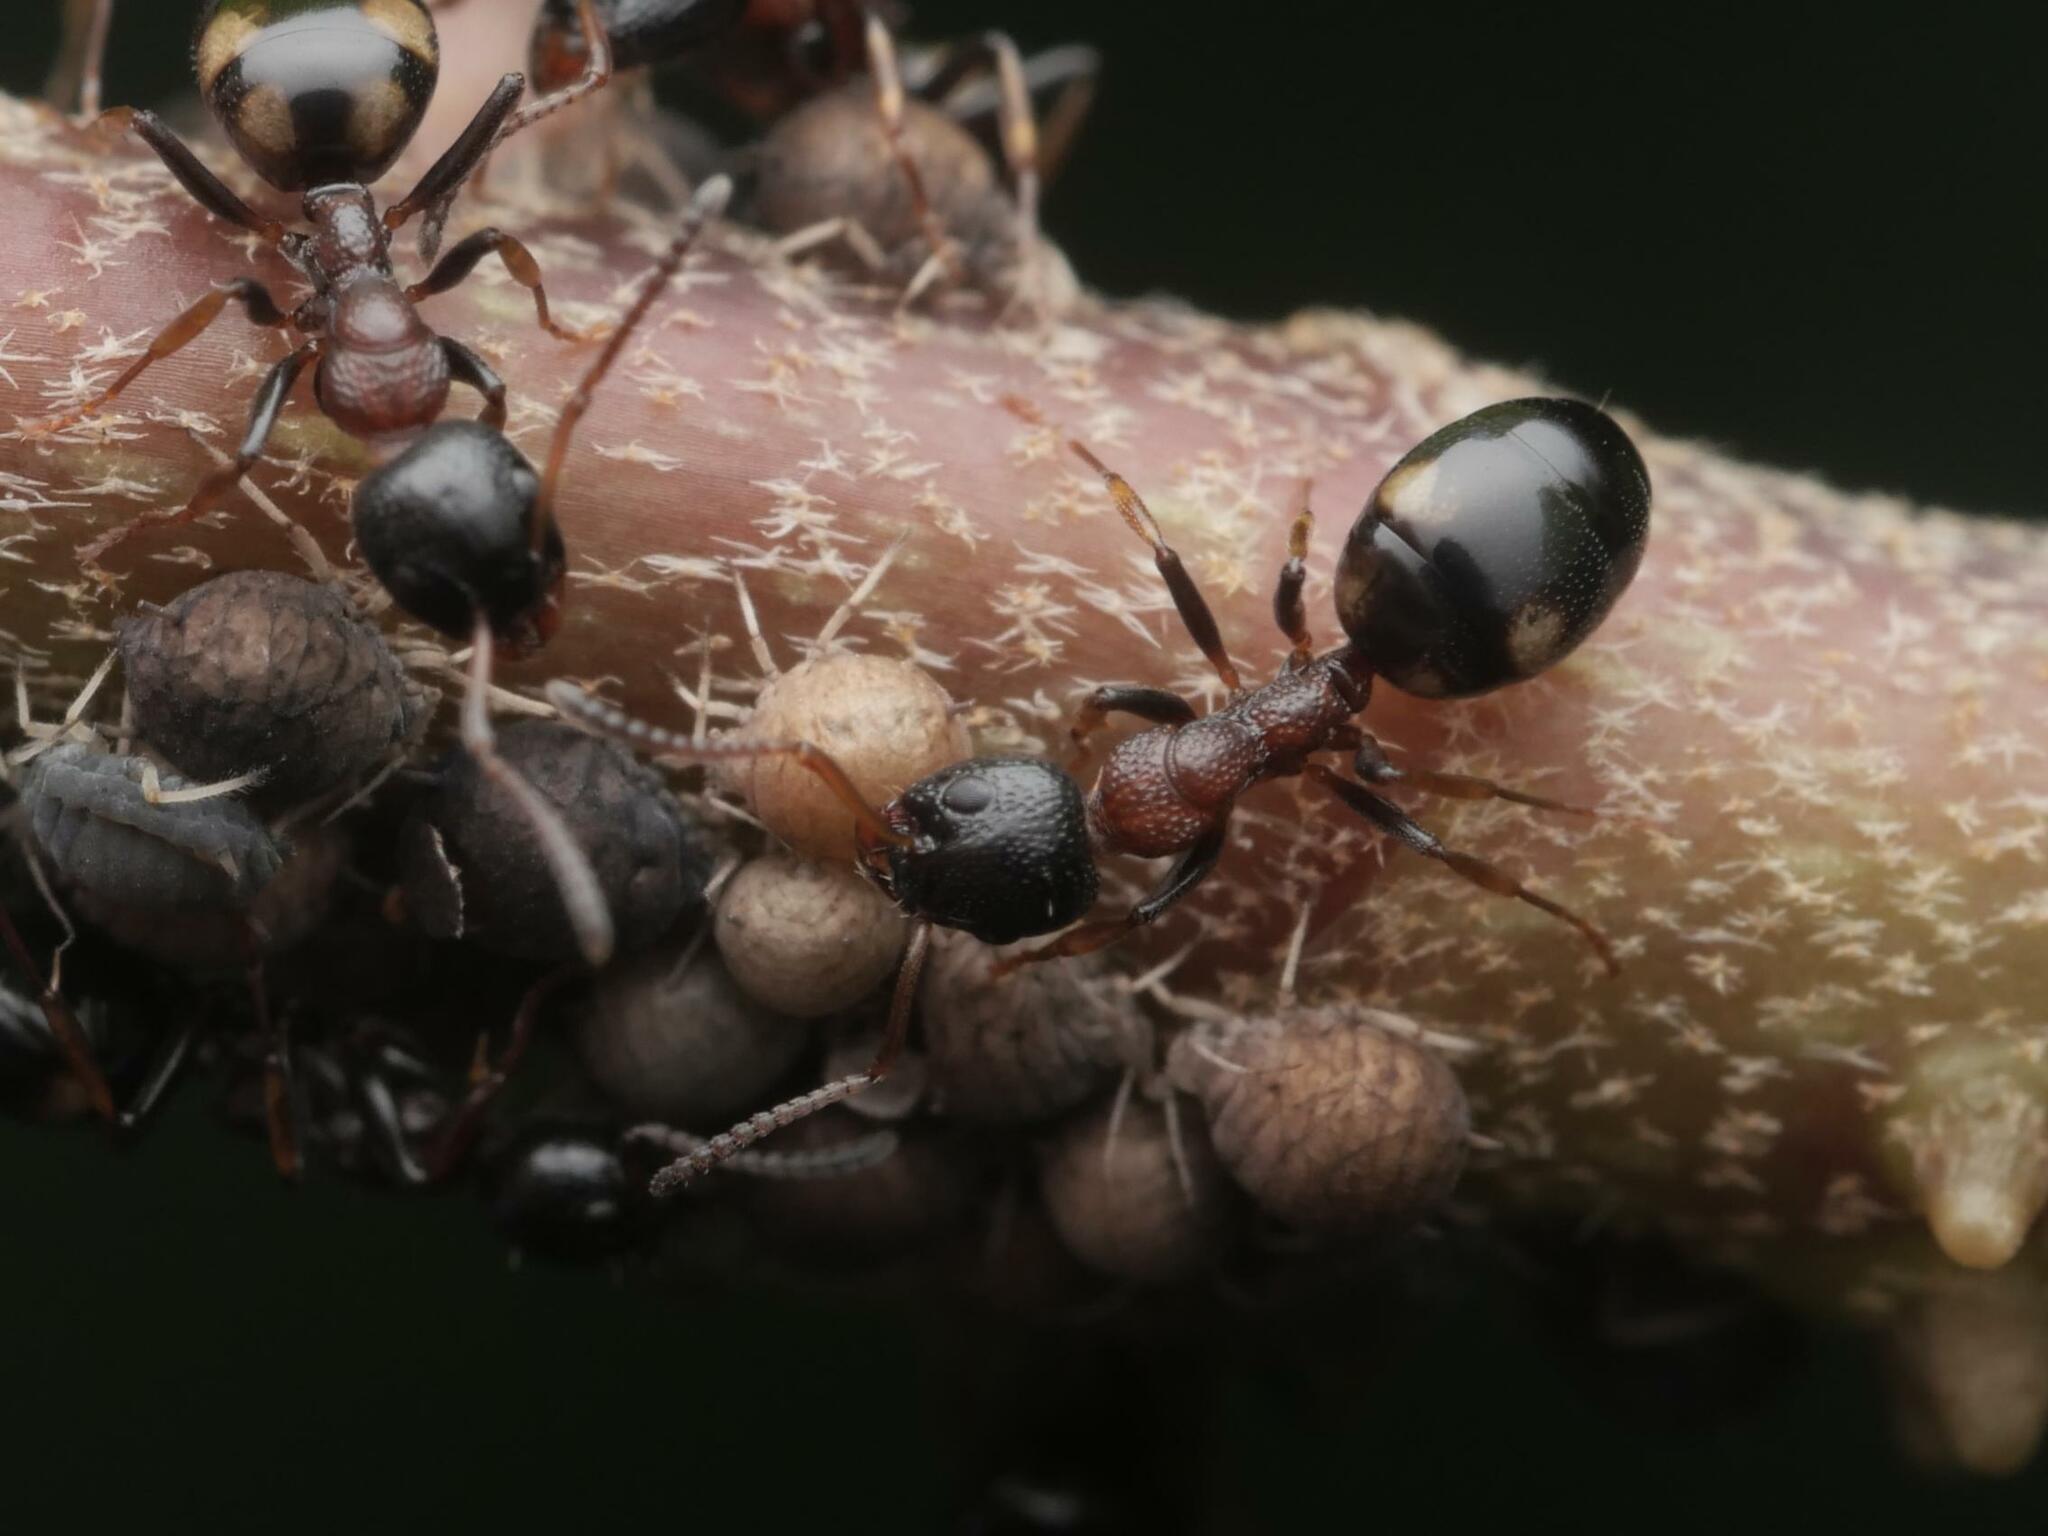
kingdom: Animalia
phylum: Arthropoda
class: Insecta
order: Hymenoptera
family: Formicidae
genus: Dolichoderus
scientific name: Dolichoderus quadripunctatus
